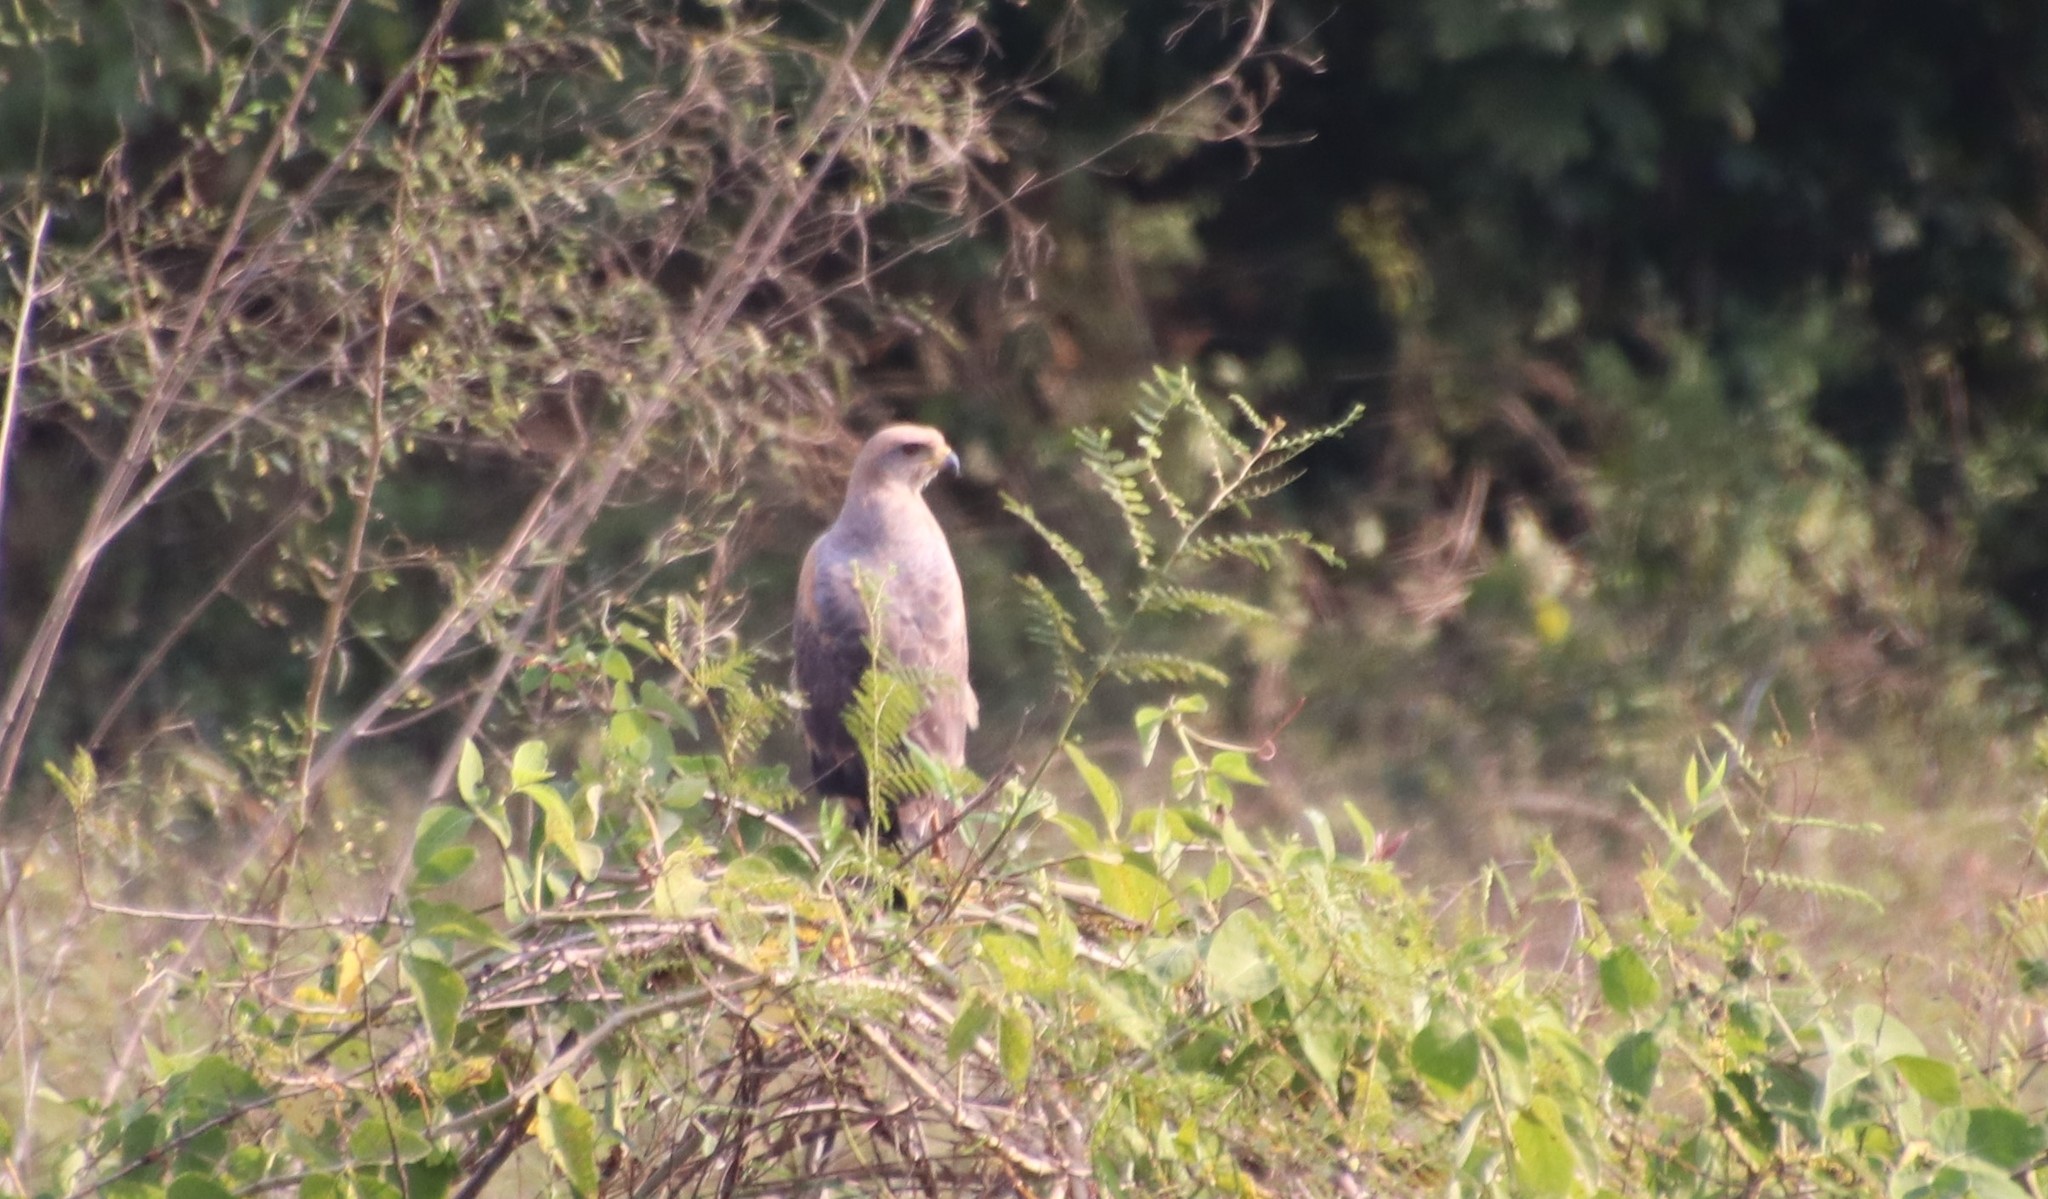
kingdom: Animalia
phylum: Chordata
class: Aves
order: Accipitriformes
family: Accipitridae
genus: Buteogallus
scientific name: Buteogallus meridionalis
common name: Savanna hawk
